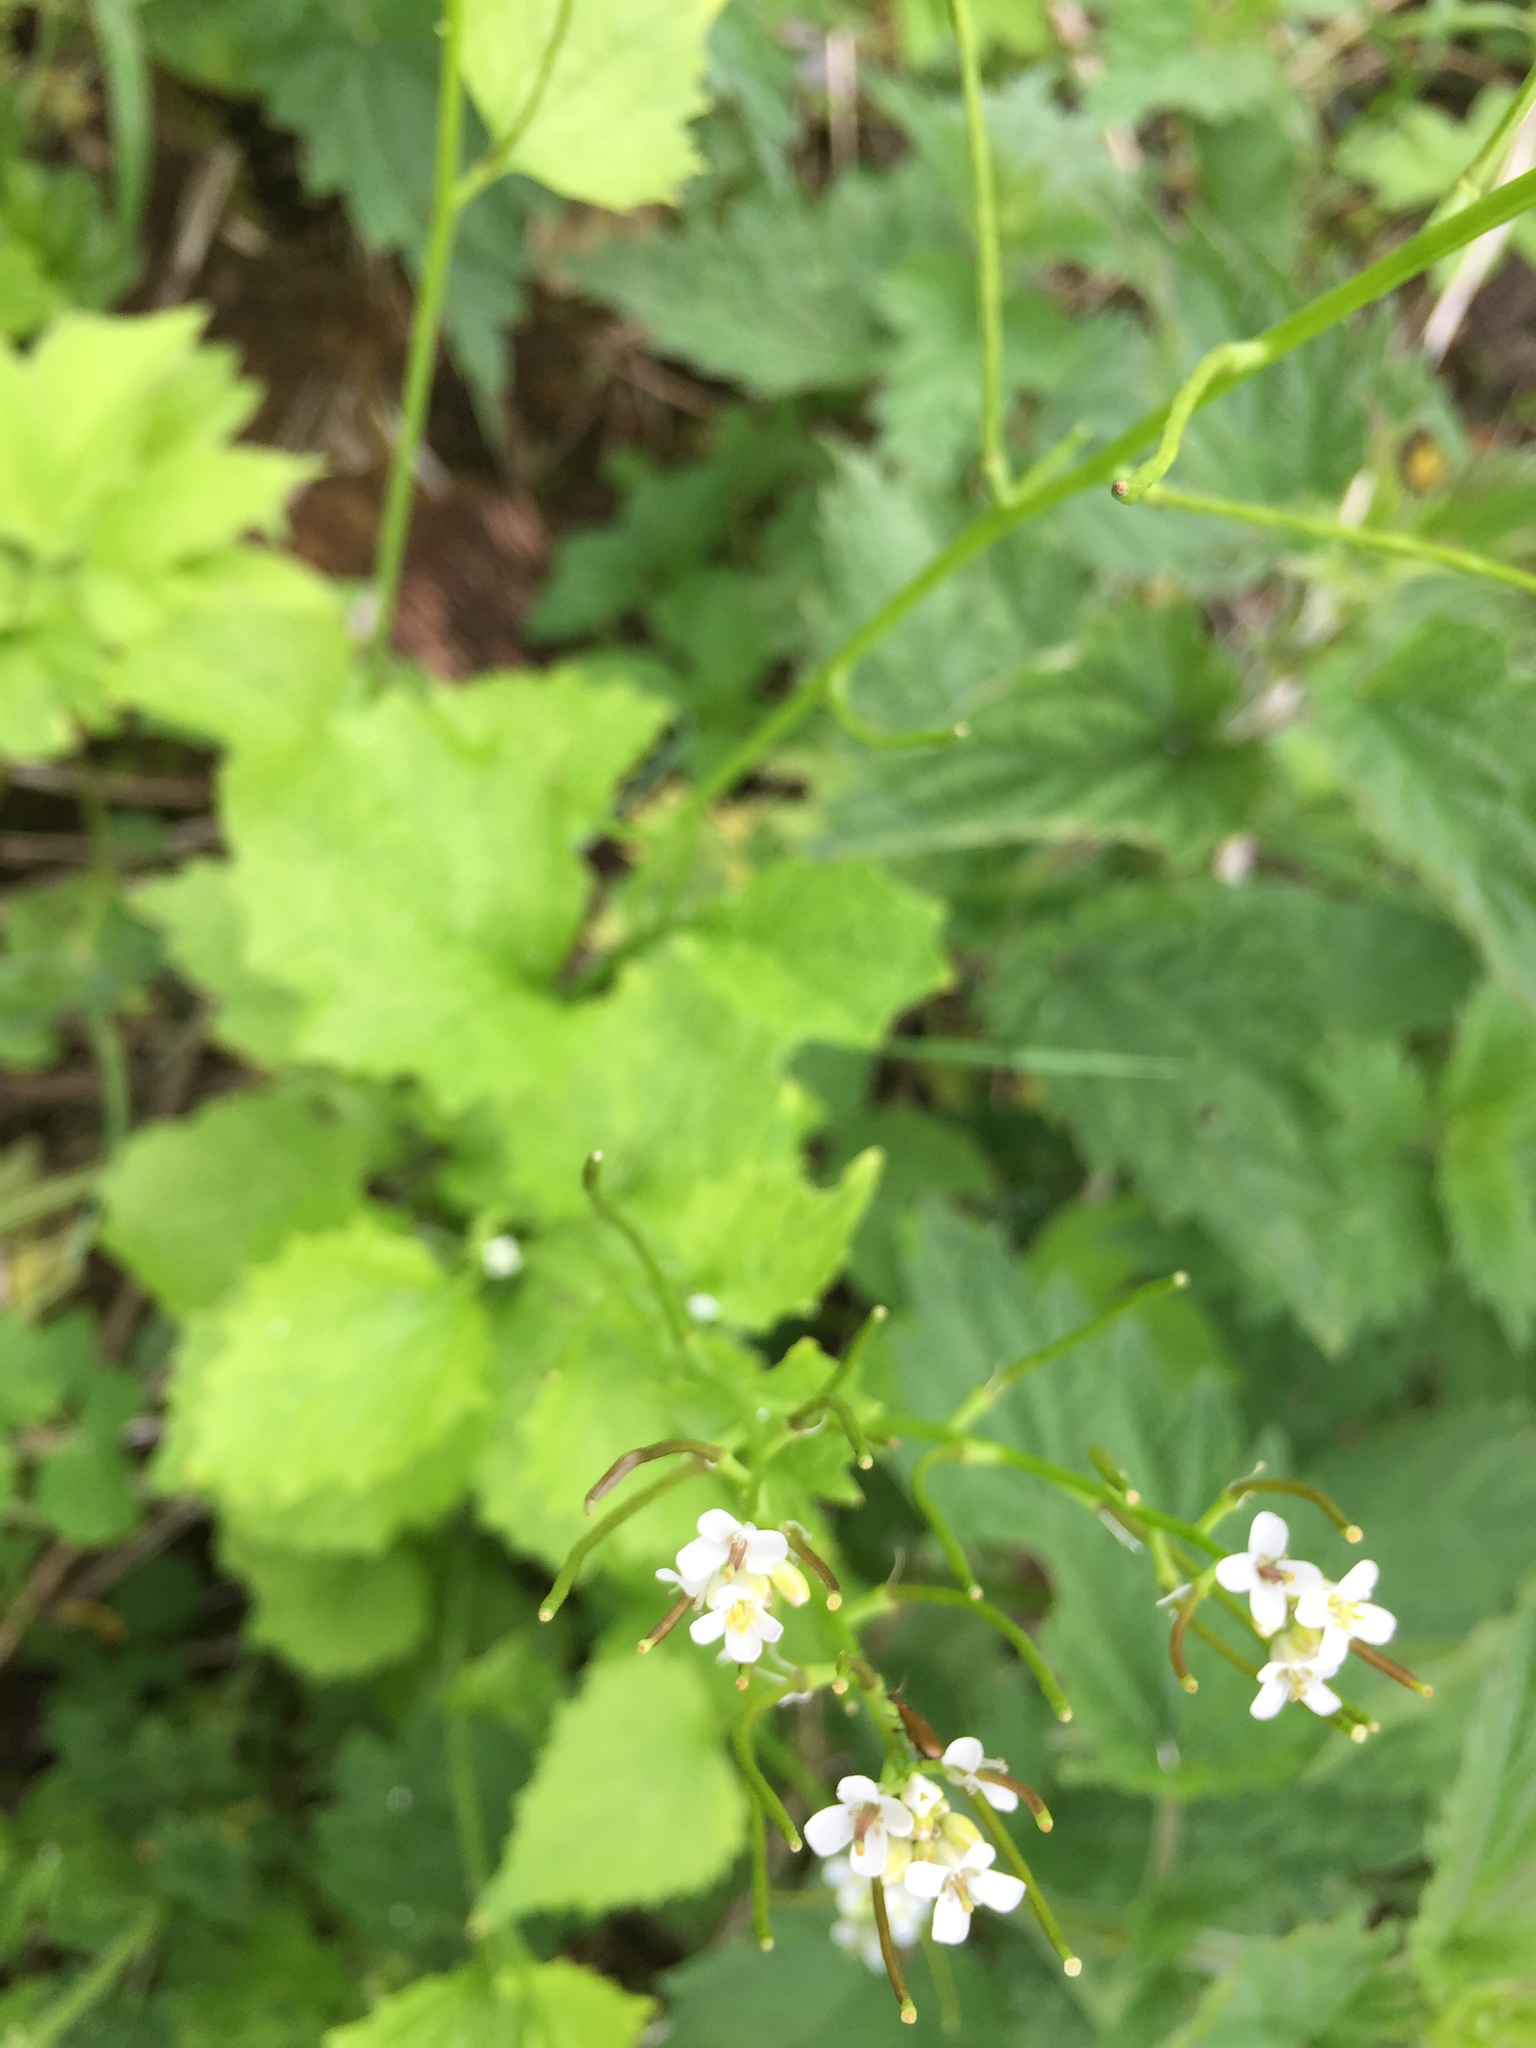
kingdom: Plantae
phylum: Tracheophyta
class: Magnoliopsida
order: Brassicales
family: Brassicaceae
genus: Alliaria
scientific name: Alliaria petiolata
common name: Garlic mustard
